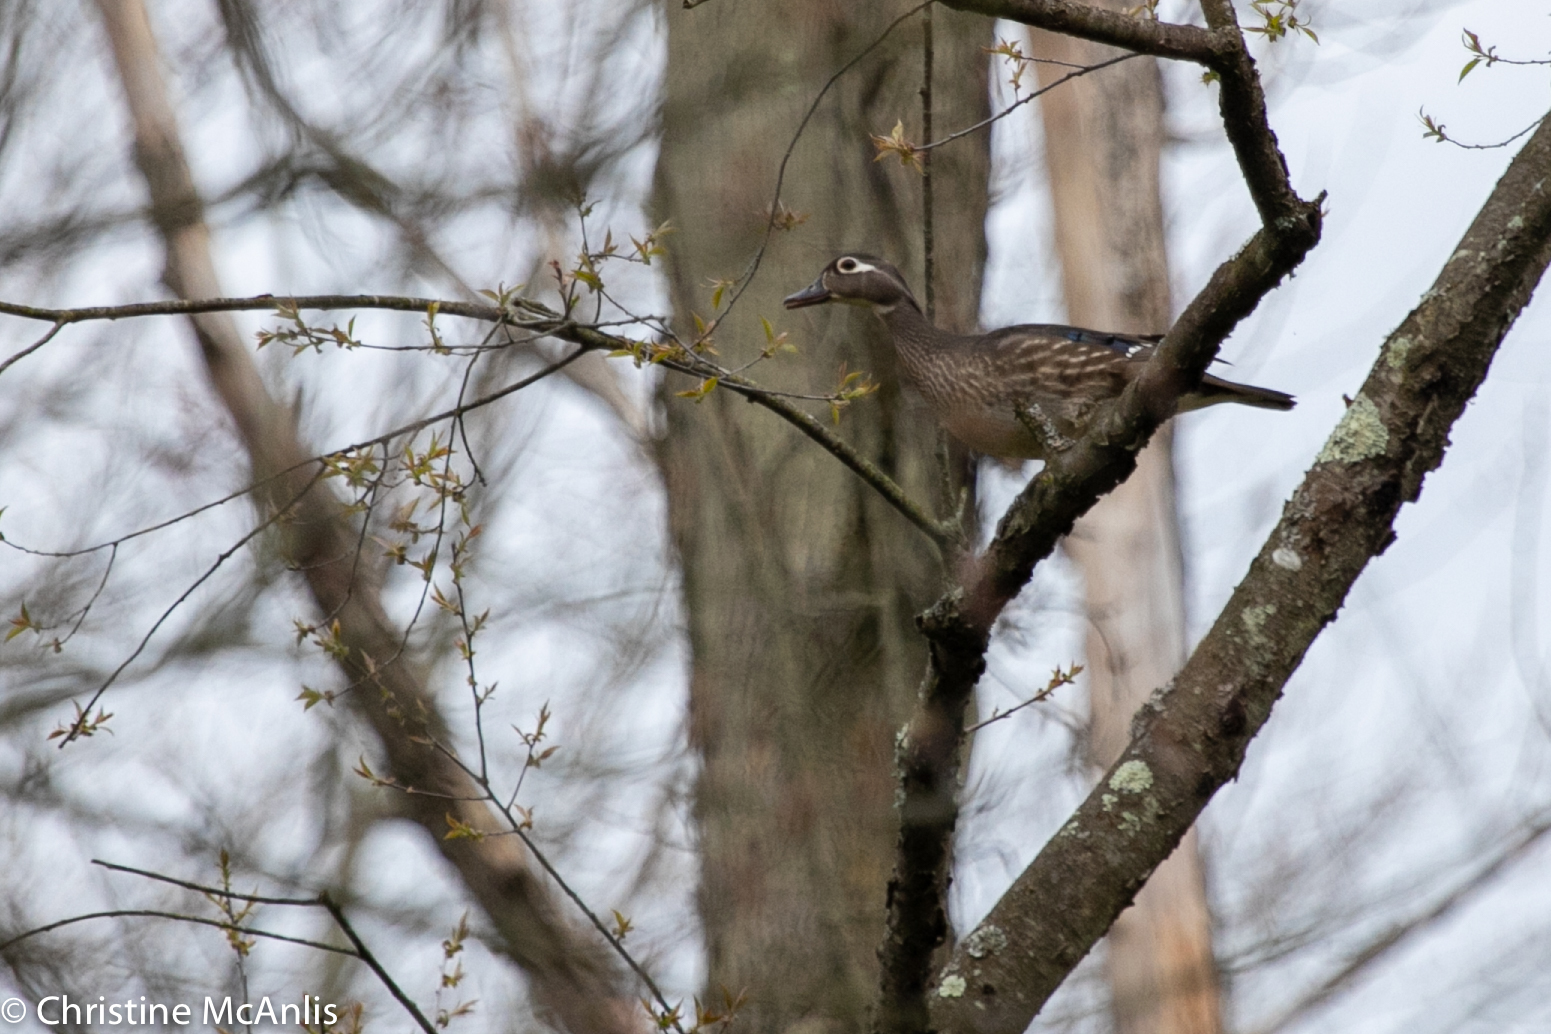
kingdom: Animalia
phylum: Chordata
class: Aves
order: Anseriformes
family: Anatidae
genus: Aix
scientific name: Aix sponsa
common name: Wood duck
